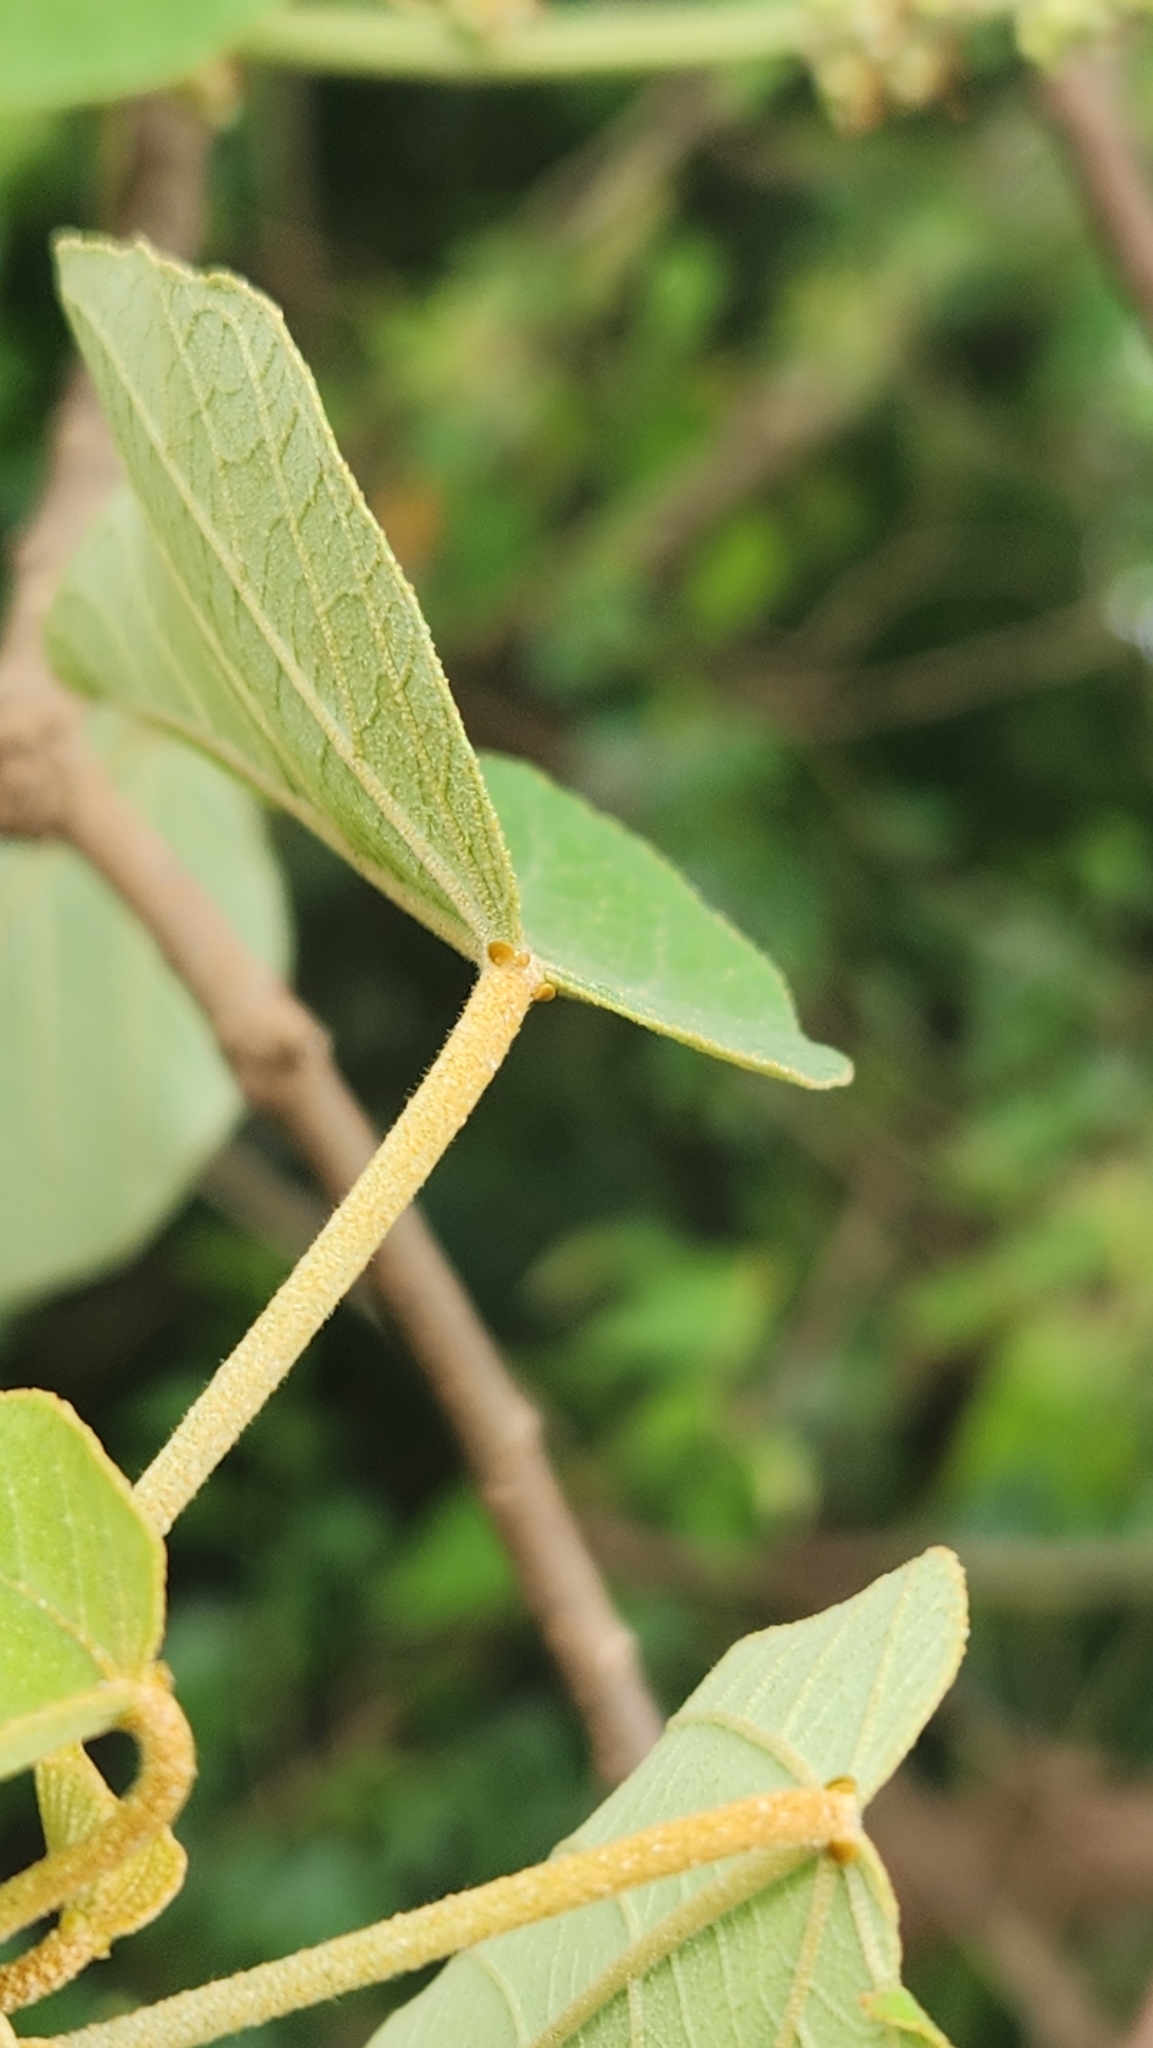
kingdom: Plantae
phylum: Tracheophyta
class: Magnoliopsida
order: Malpighiales
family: Euphorbiaceae
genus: Croton
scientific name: Croton urucurana
